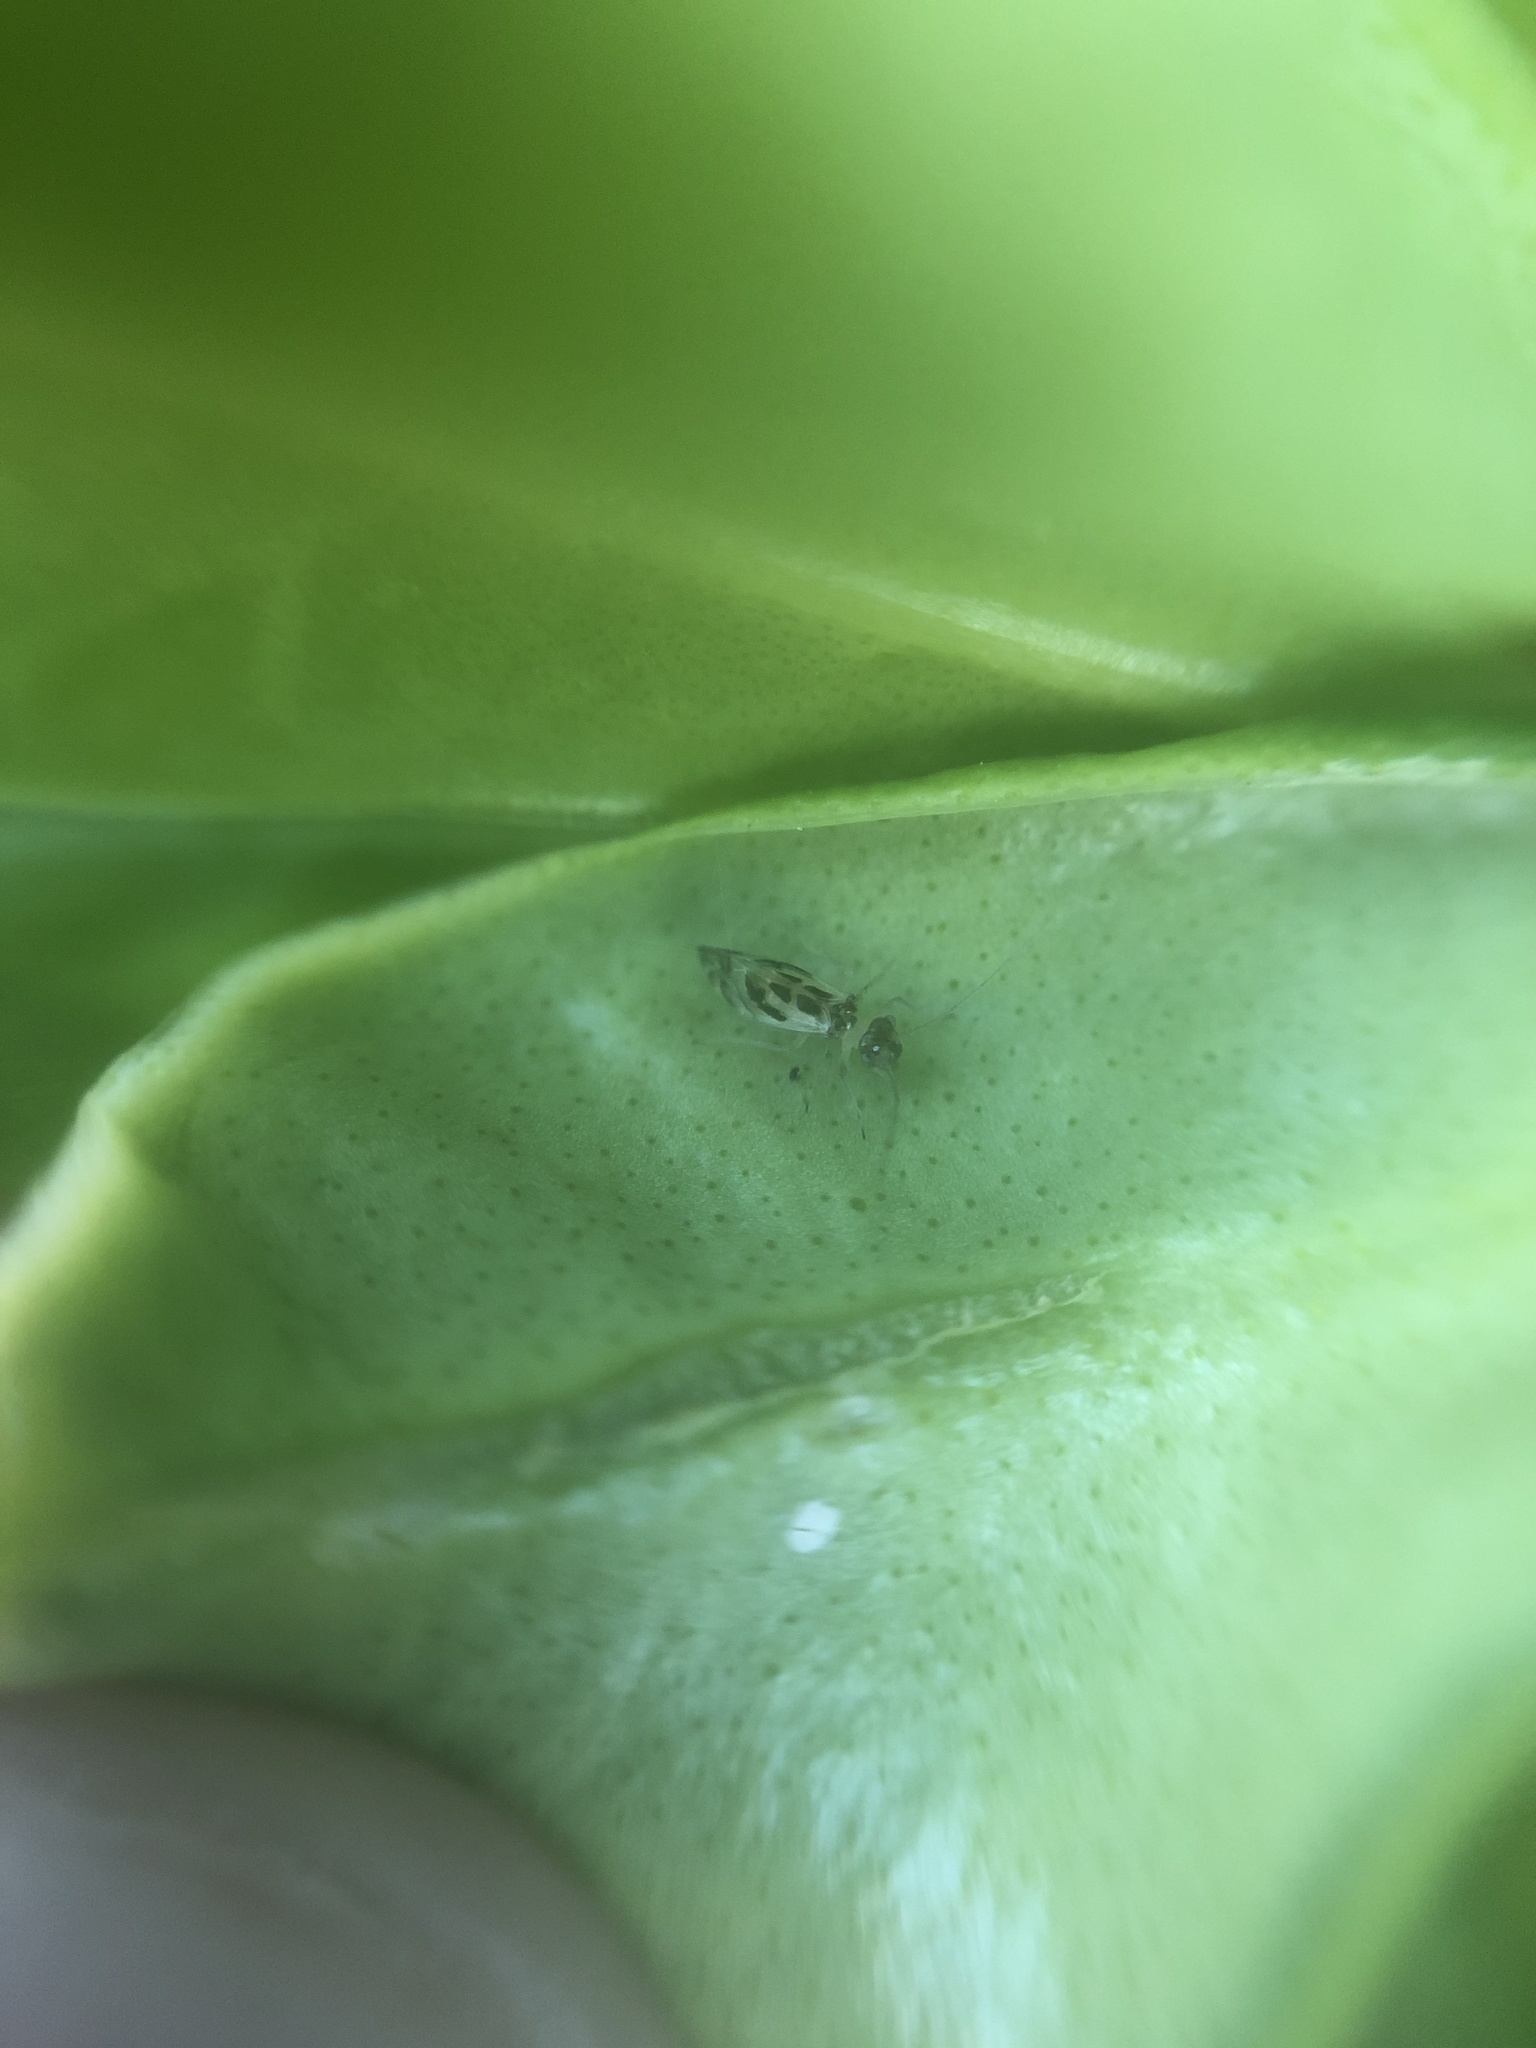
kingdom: Animalia
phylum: Arthropoda
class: Insecta
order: Psocodea
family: Stenopsocidae
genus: Graphopsocus
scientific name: Graphopsocus cruciatus
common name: Lizard bark louse
